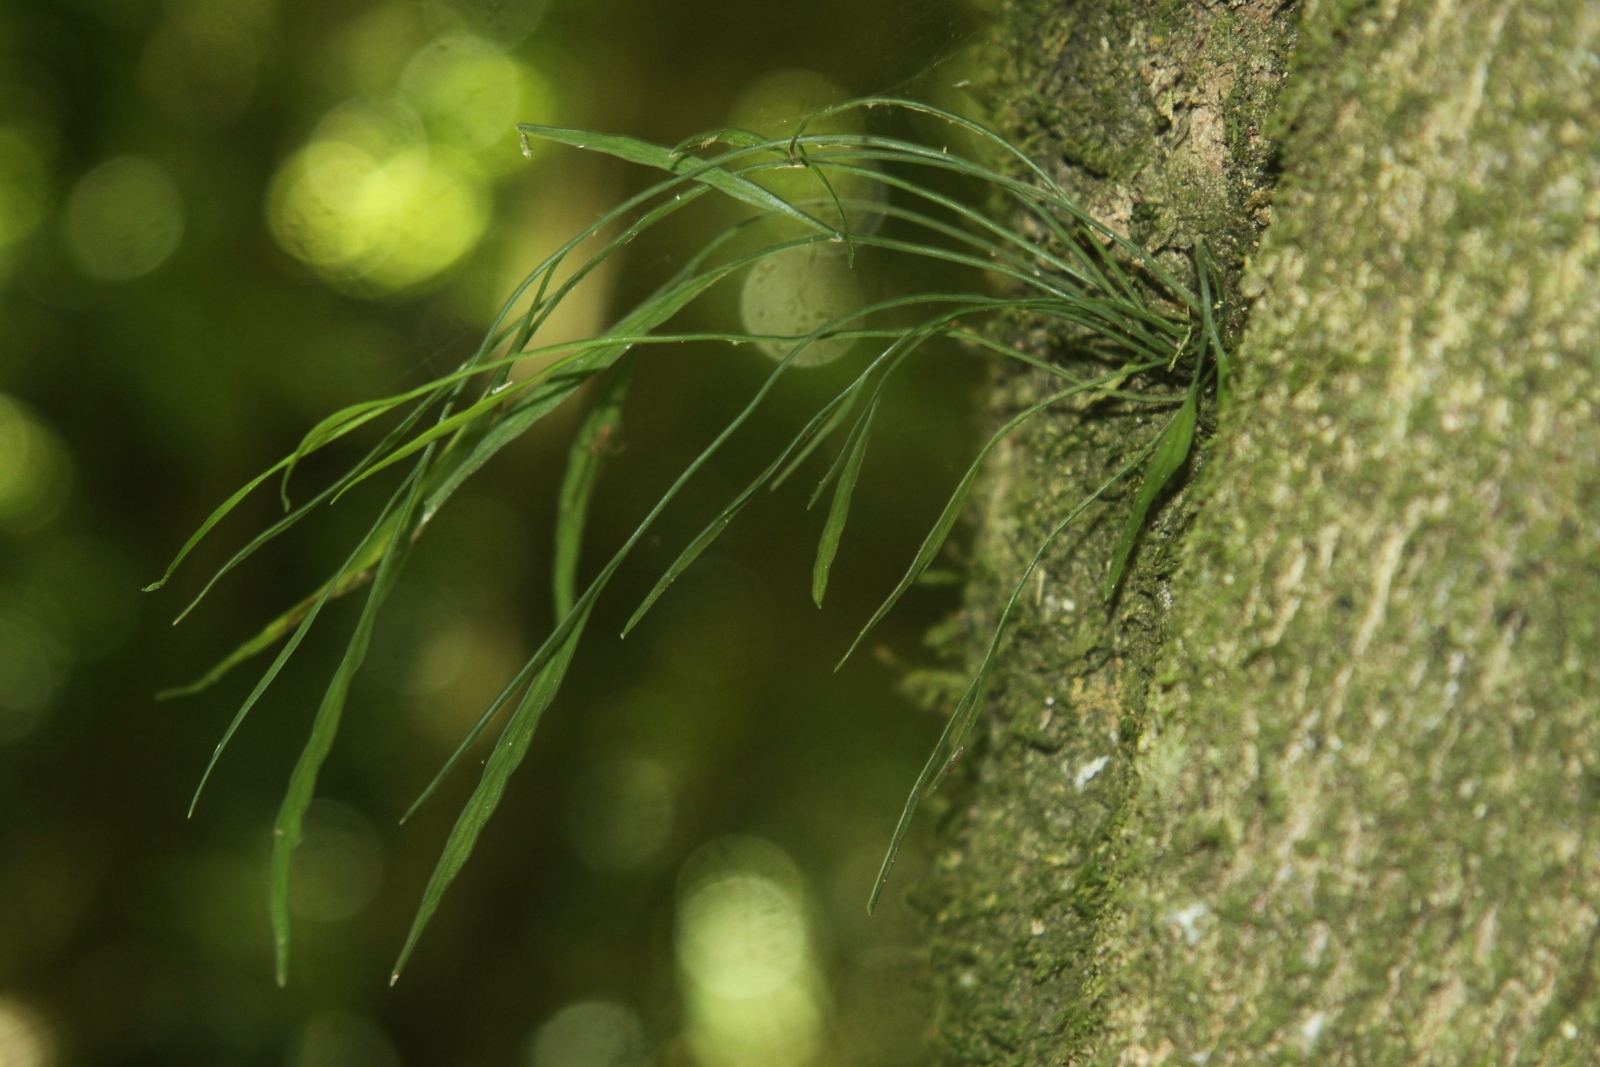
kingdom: Plantae
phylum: Tracheophyta
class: Polypodiopsida
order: Polypodiales
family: Aspleniaceae
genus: Asplenium
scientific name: Asplenium flaccidum
